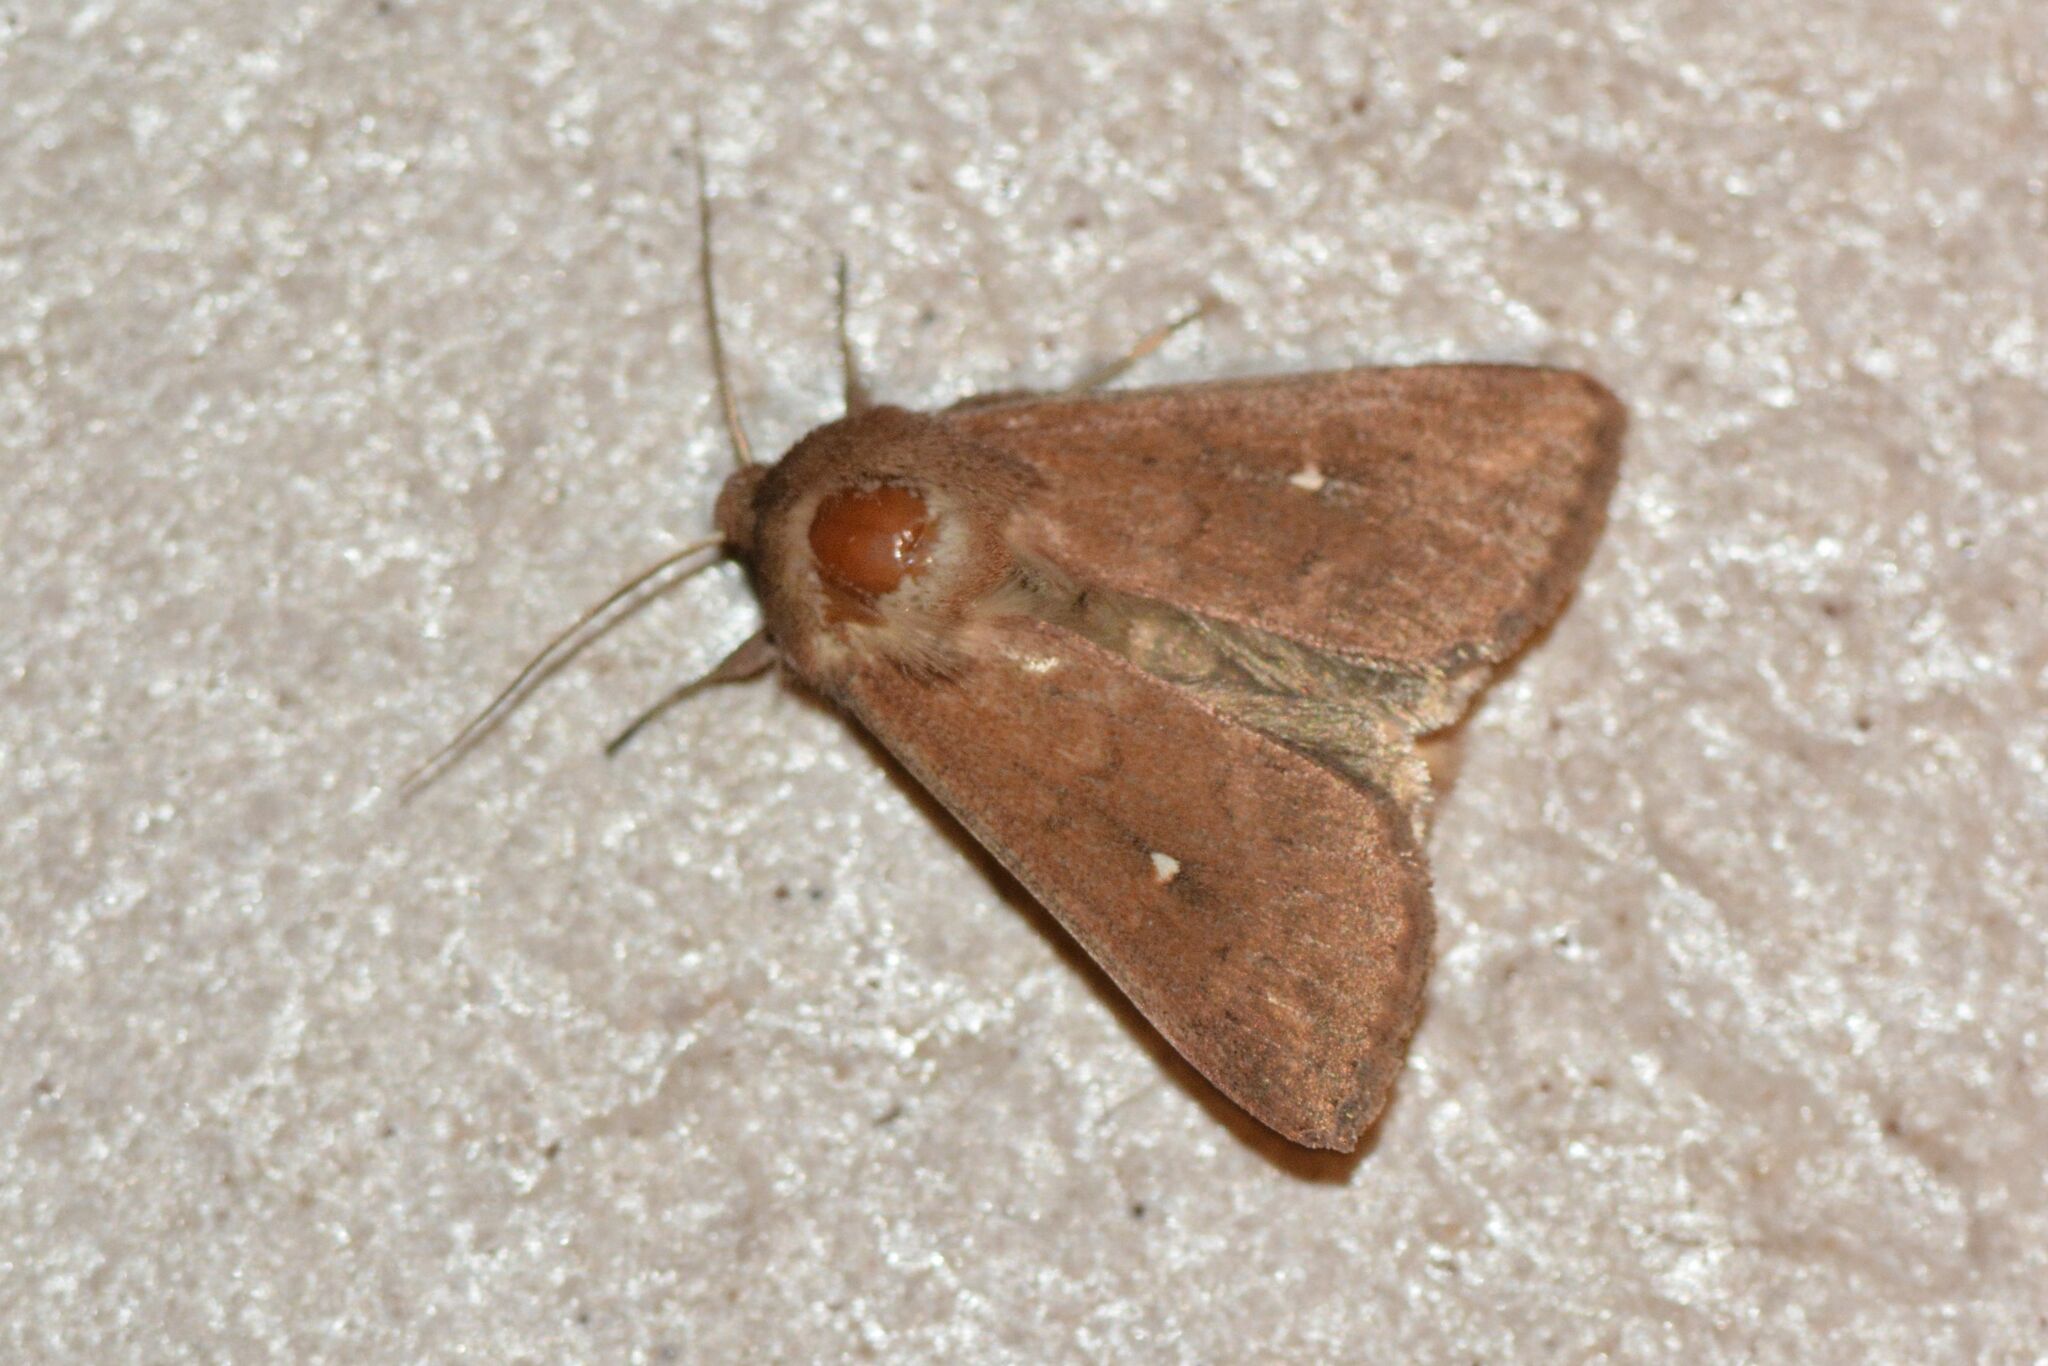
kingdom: Animalia
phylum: Arthropoda
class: Insecta
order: Lepidoptera
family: Noctuidae
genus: Mythimna
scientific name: Mythimna albipuncta
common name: White-point
